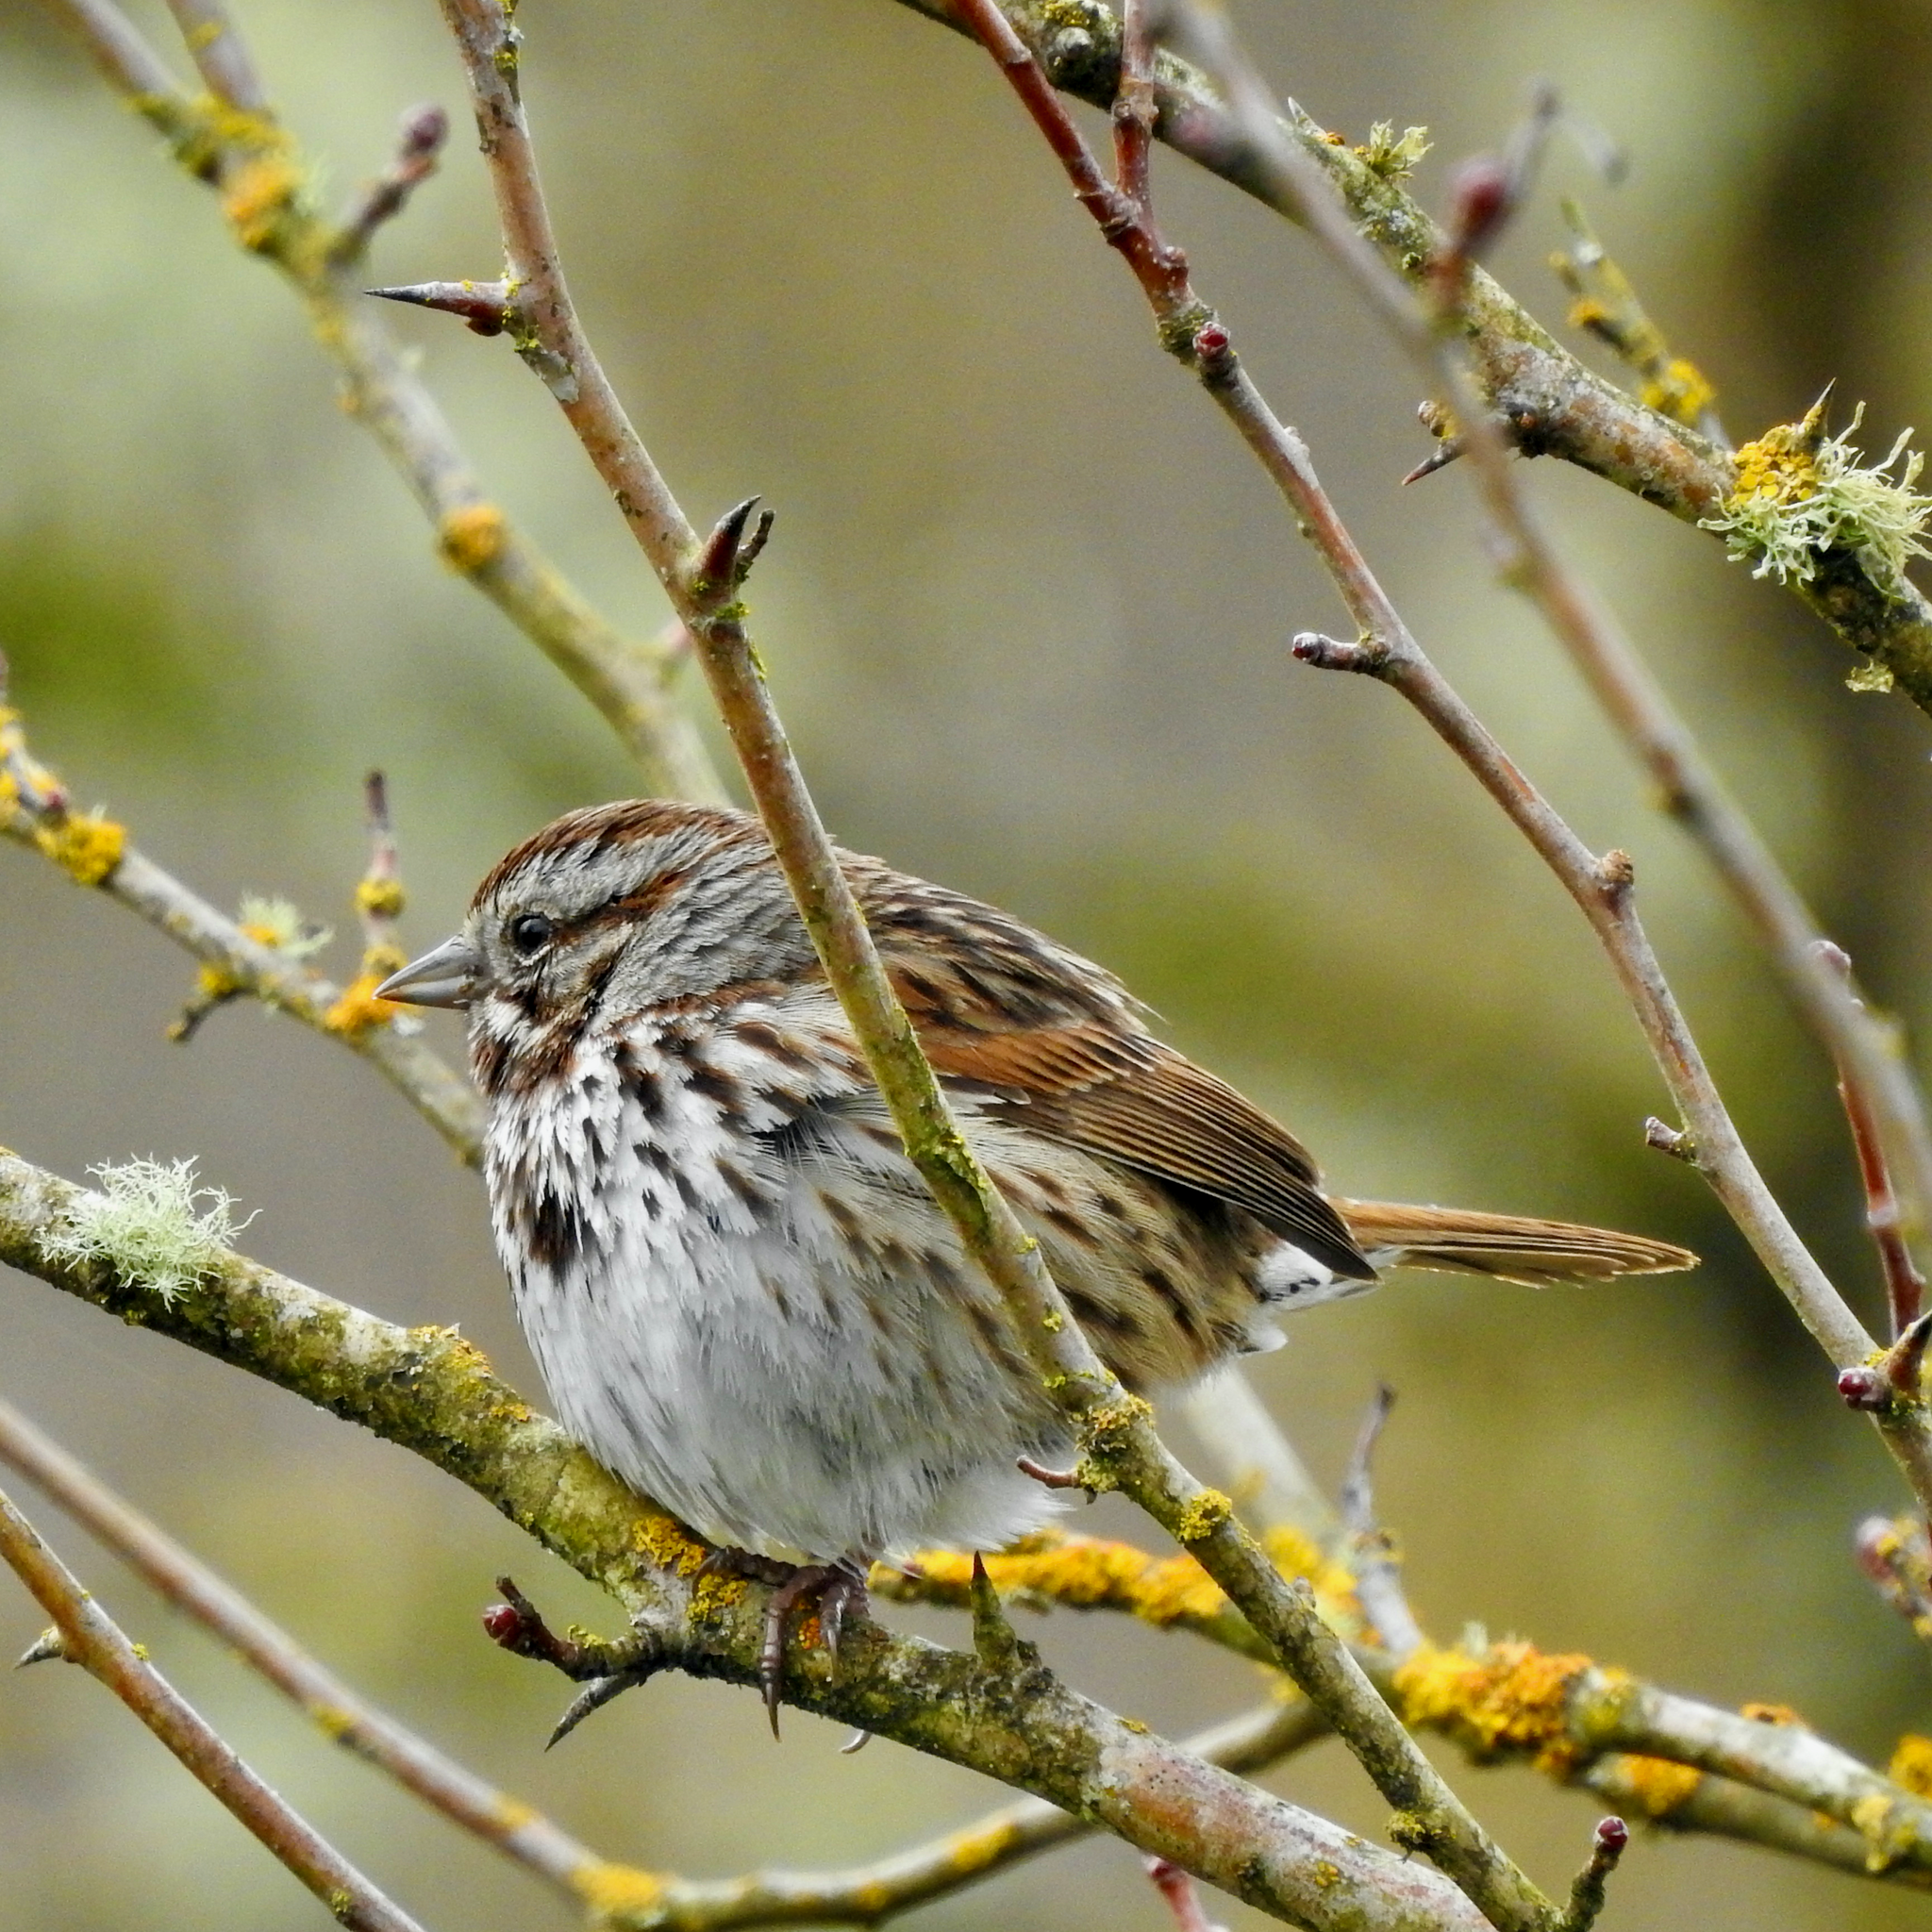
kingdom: Animalia
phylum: Chordata
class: Aves
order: Passeriformes
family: Passerellidae
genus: Melospiza
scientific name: Melospiza melodia
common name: Song sparrow
